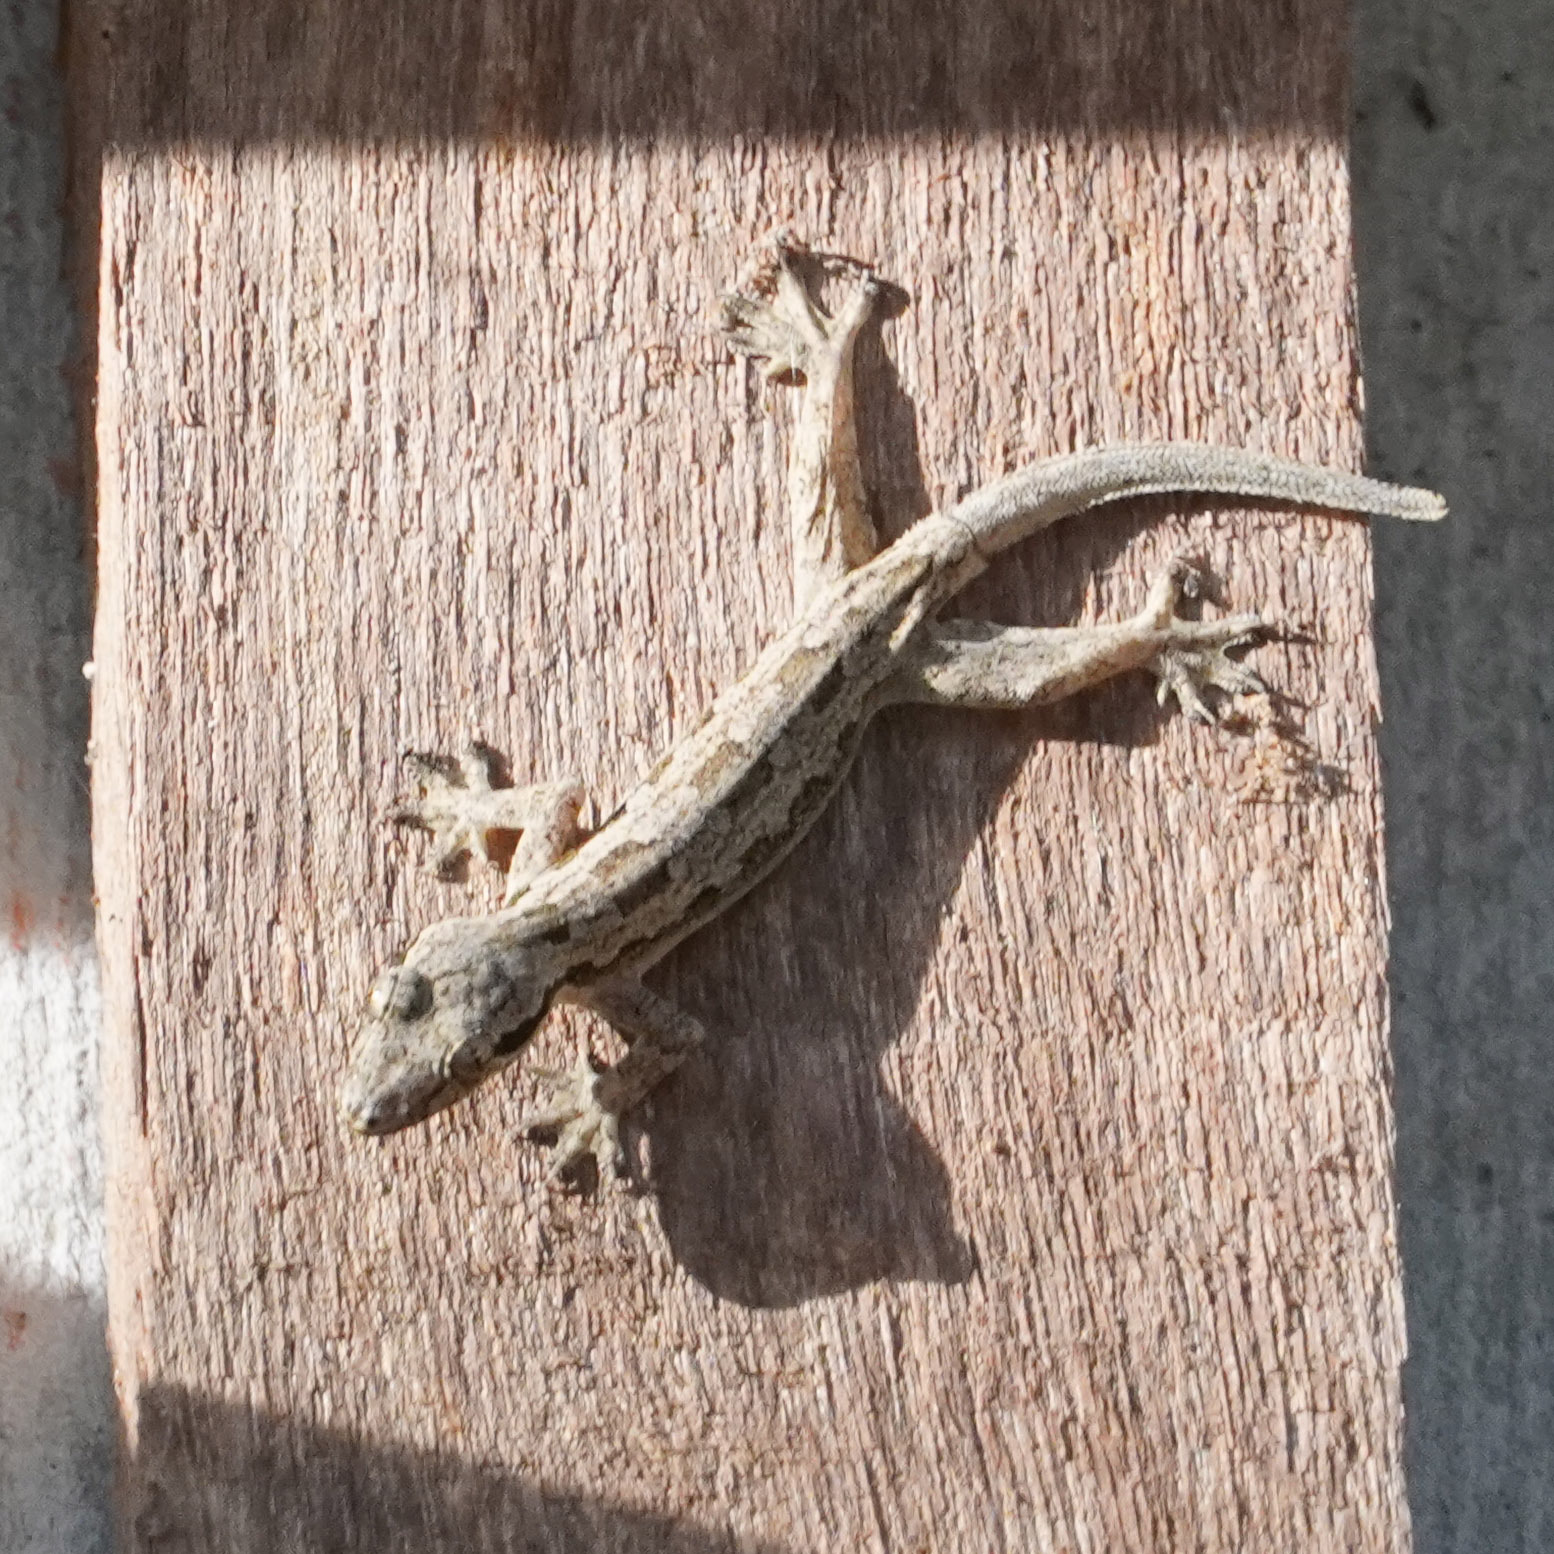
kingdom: Animalia
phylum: Chordata
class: Squamata
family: Gekkonidae
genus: Hemidactylus
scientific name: Hemidactylus platyurus
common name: Flat-tailed house gecko
